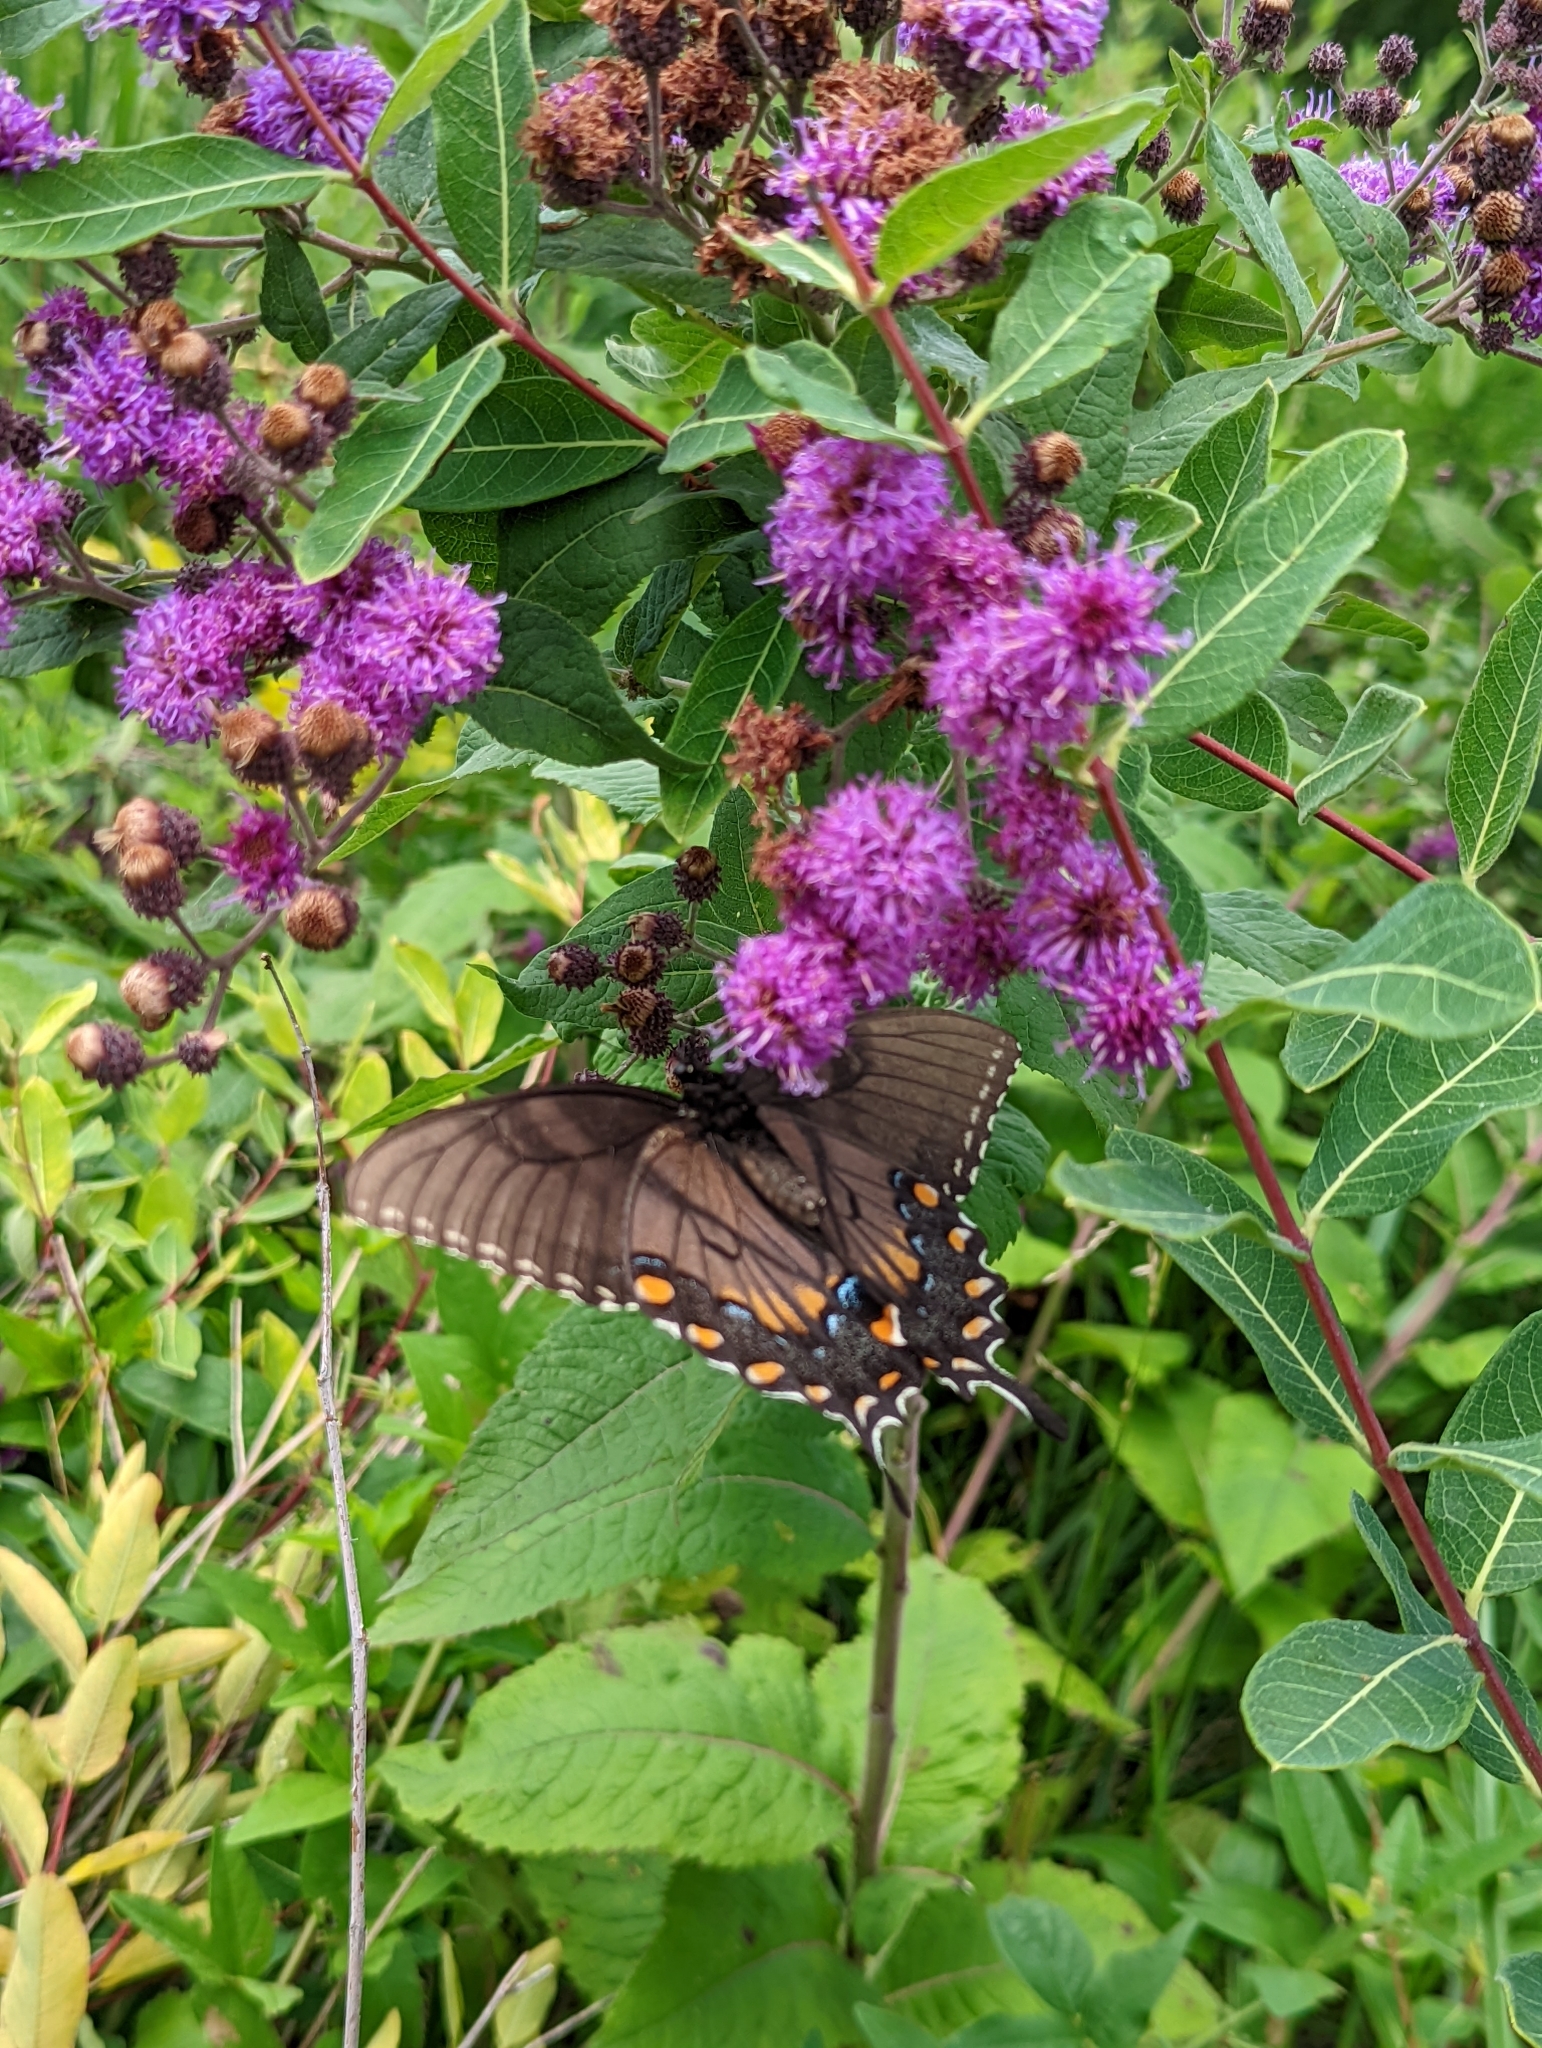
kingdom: Animalia
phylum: Arthropoda
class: Insecta
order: Lepidoptera
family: Papilionidae
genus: Papilio
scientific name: Papilio glaucus
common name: Tiger swallowtail
